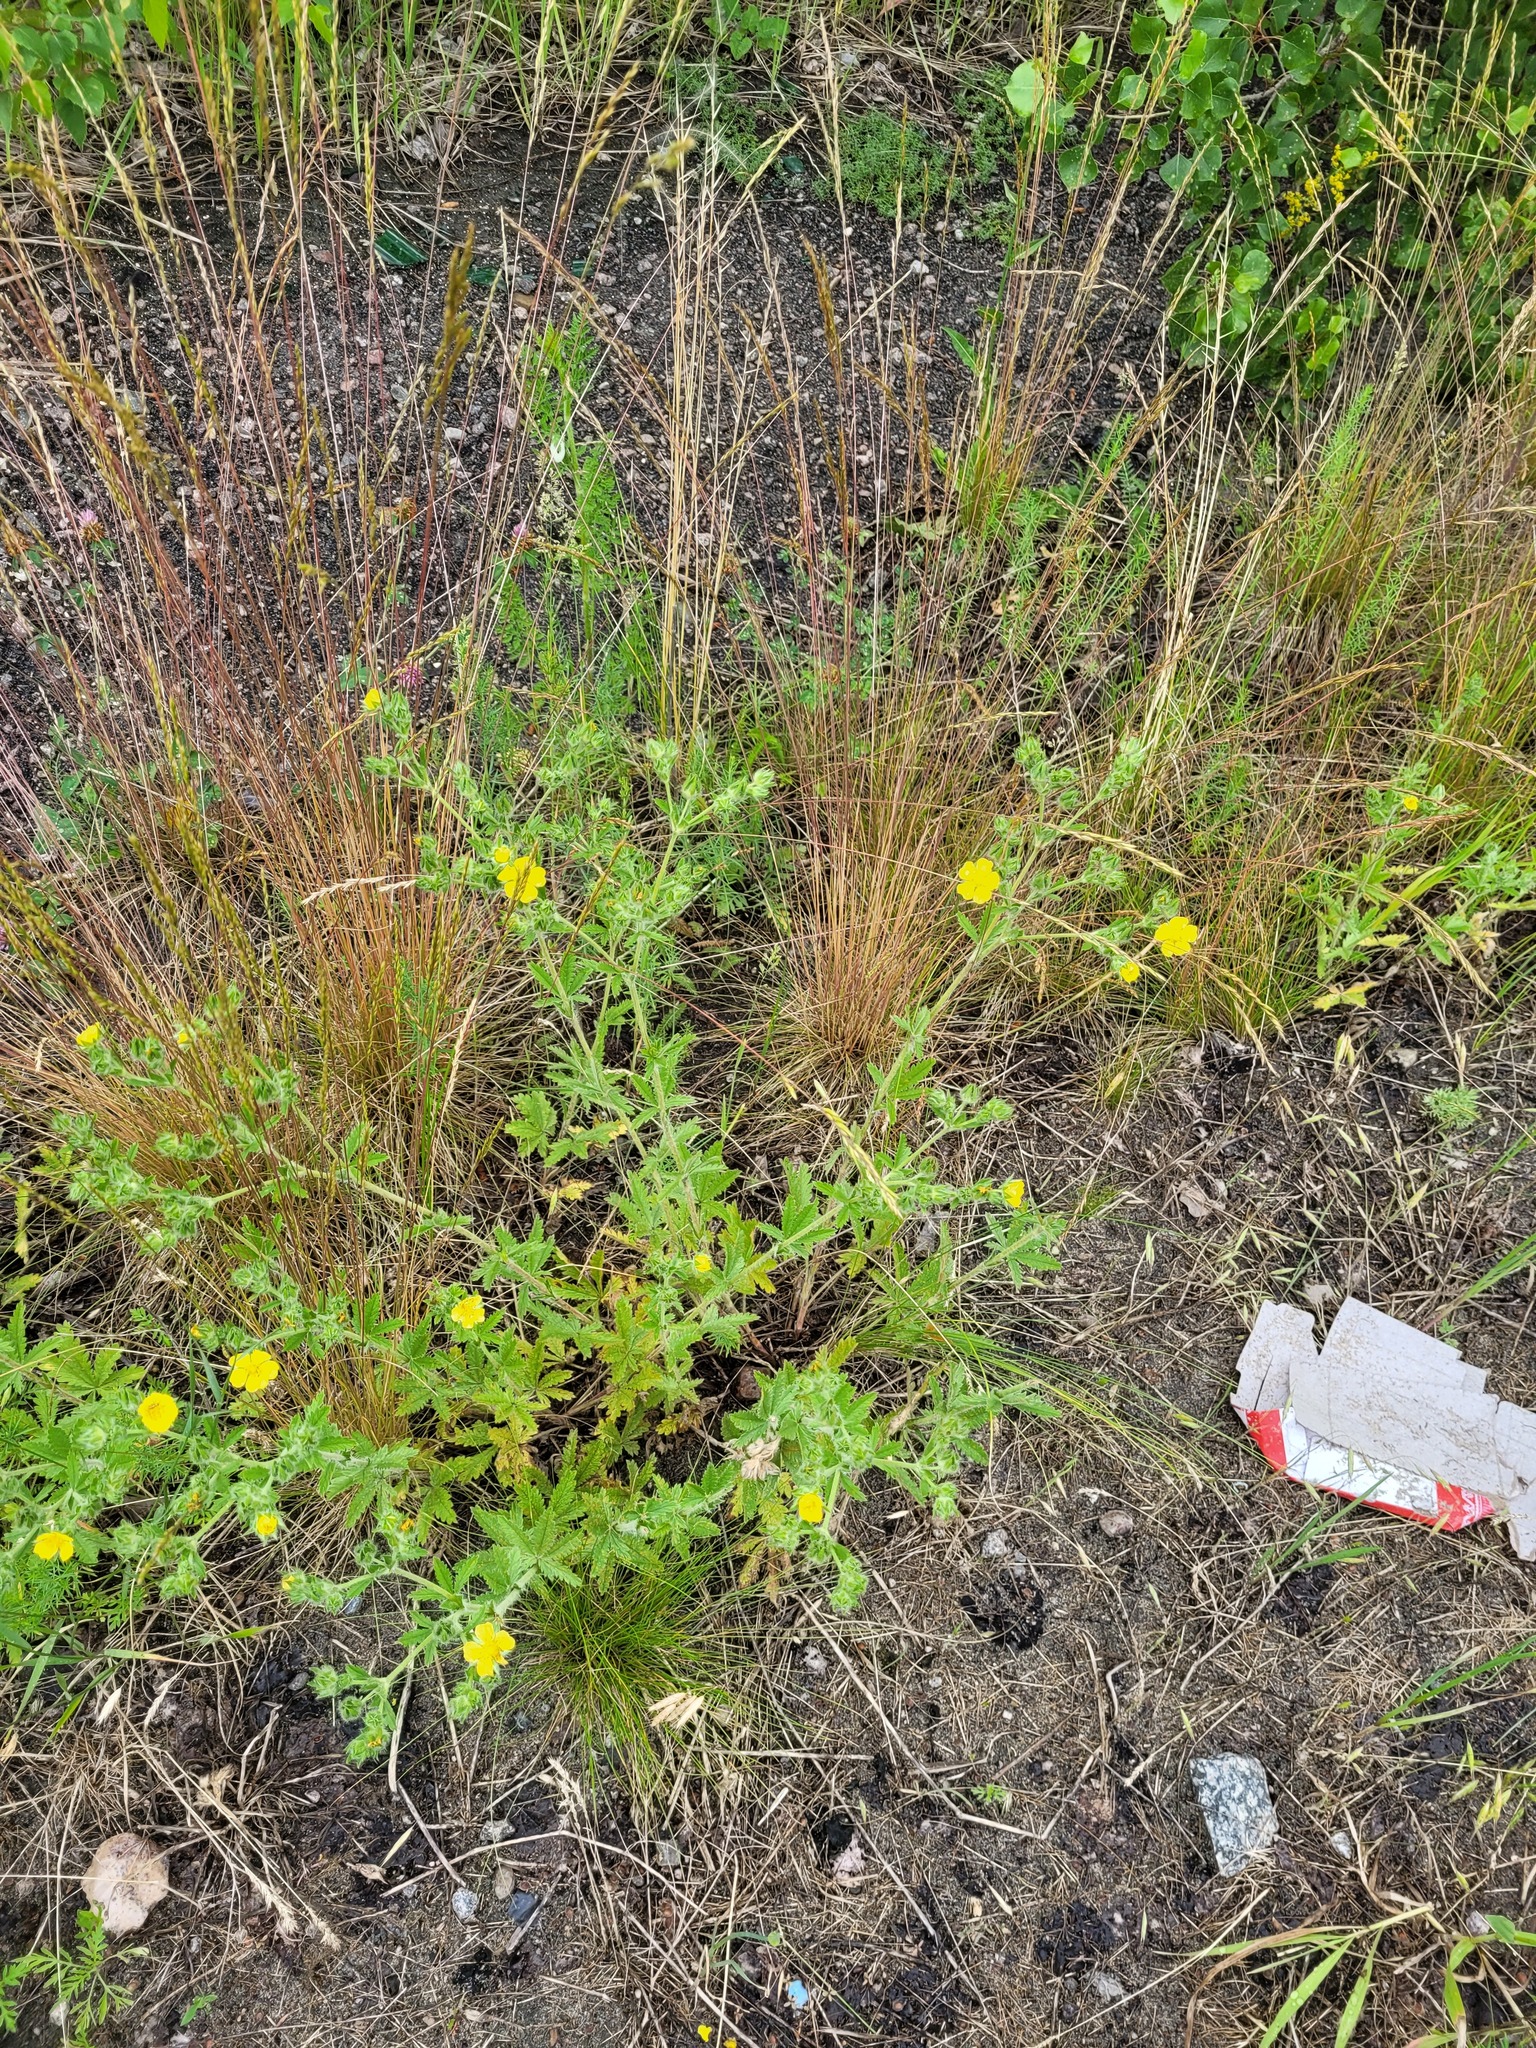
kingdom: Plantae
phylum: Tracheophyta
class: Magnoliopsida
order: Rosales
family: Rosaceae
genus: Potentilla
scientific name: Potentilla recta
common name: Sulphur cinquefoil
